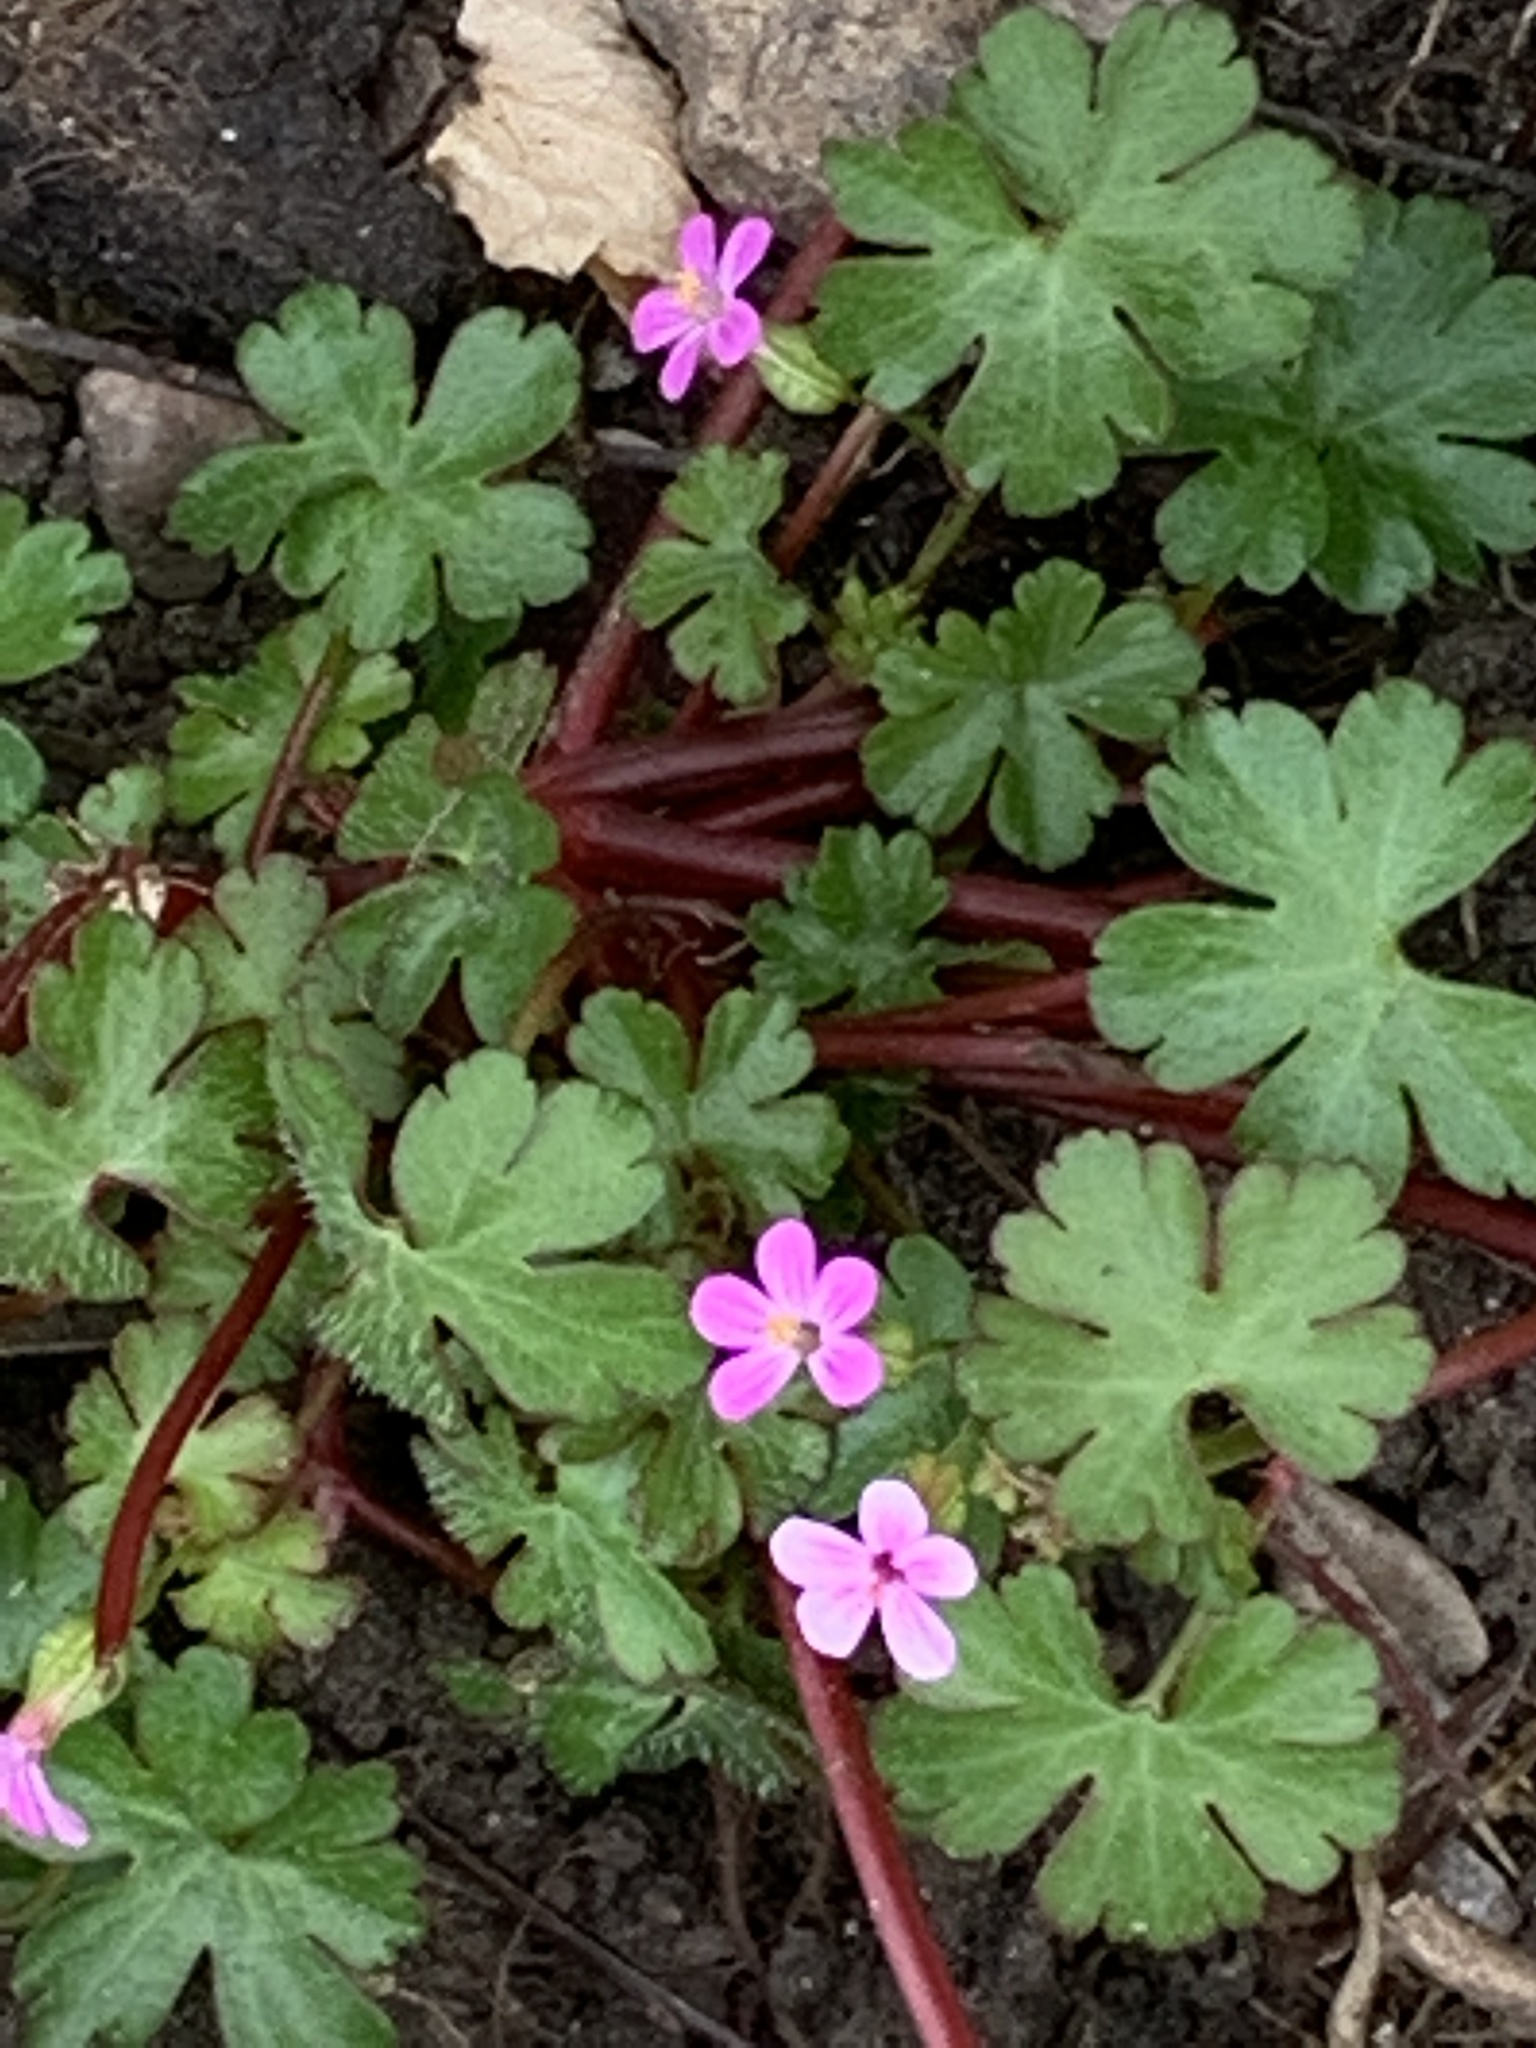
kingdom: Plantae
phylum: Tracheophyta
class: Magnoliopsida
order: Geraniales
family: Geraniaceae
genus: Geranium
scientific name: Geranium lucidum
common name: Shining crane's-bill
